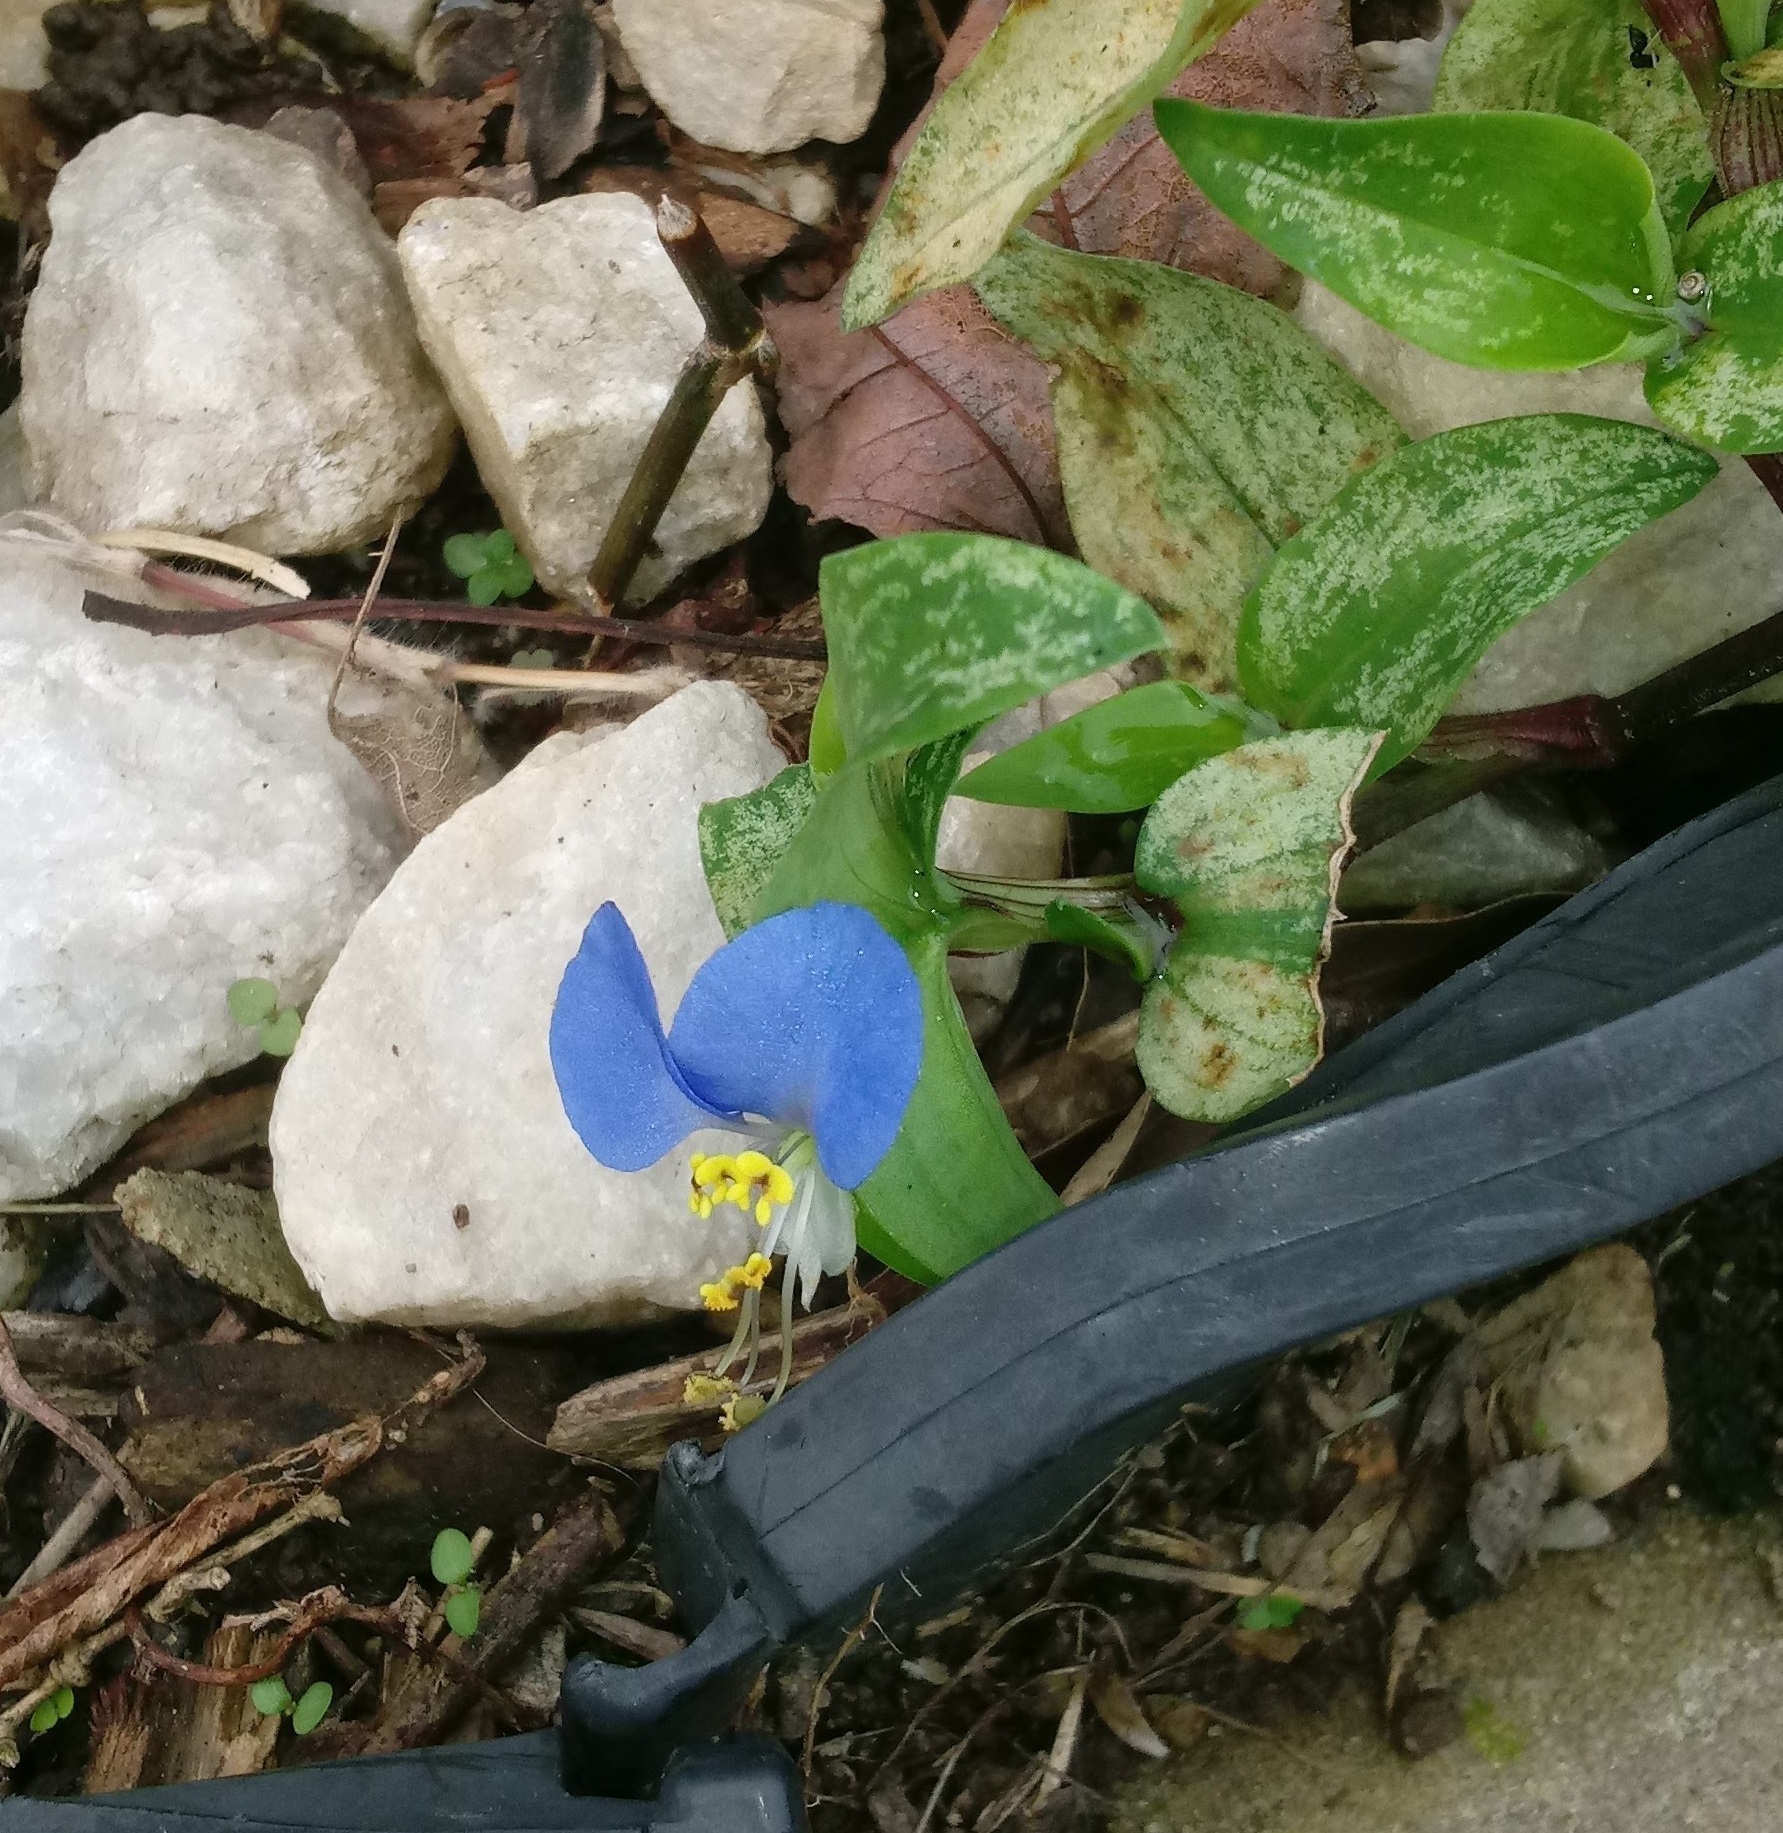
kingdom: Plantae
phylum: Tracheophyta
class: Liliopsida
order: Commelinales
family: Commelinaceae
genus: Commelina
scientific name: Commelina communis
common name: Asiatic dayflower
